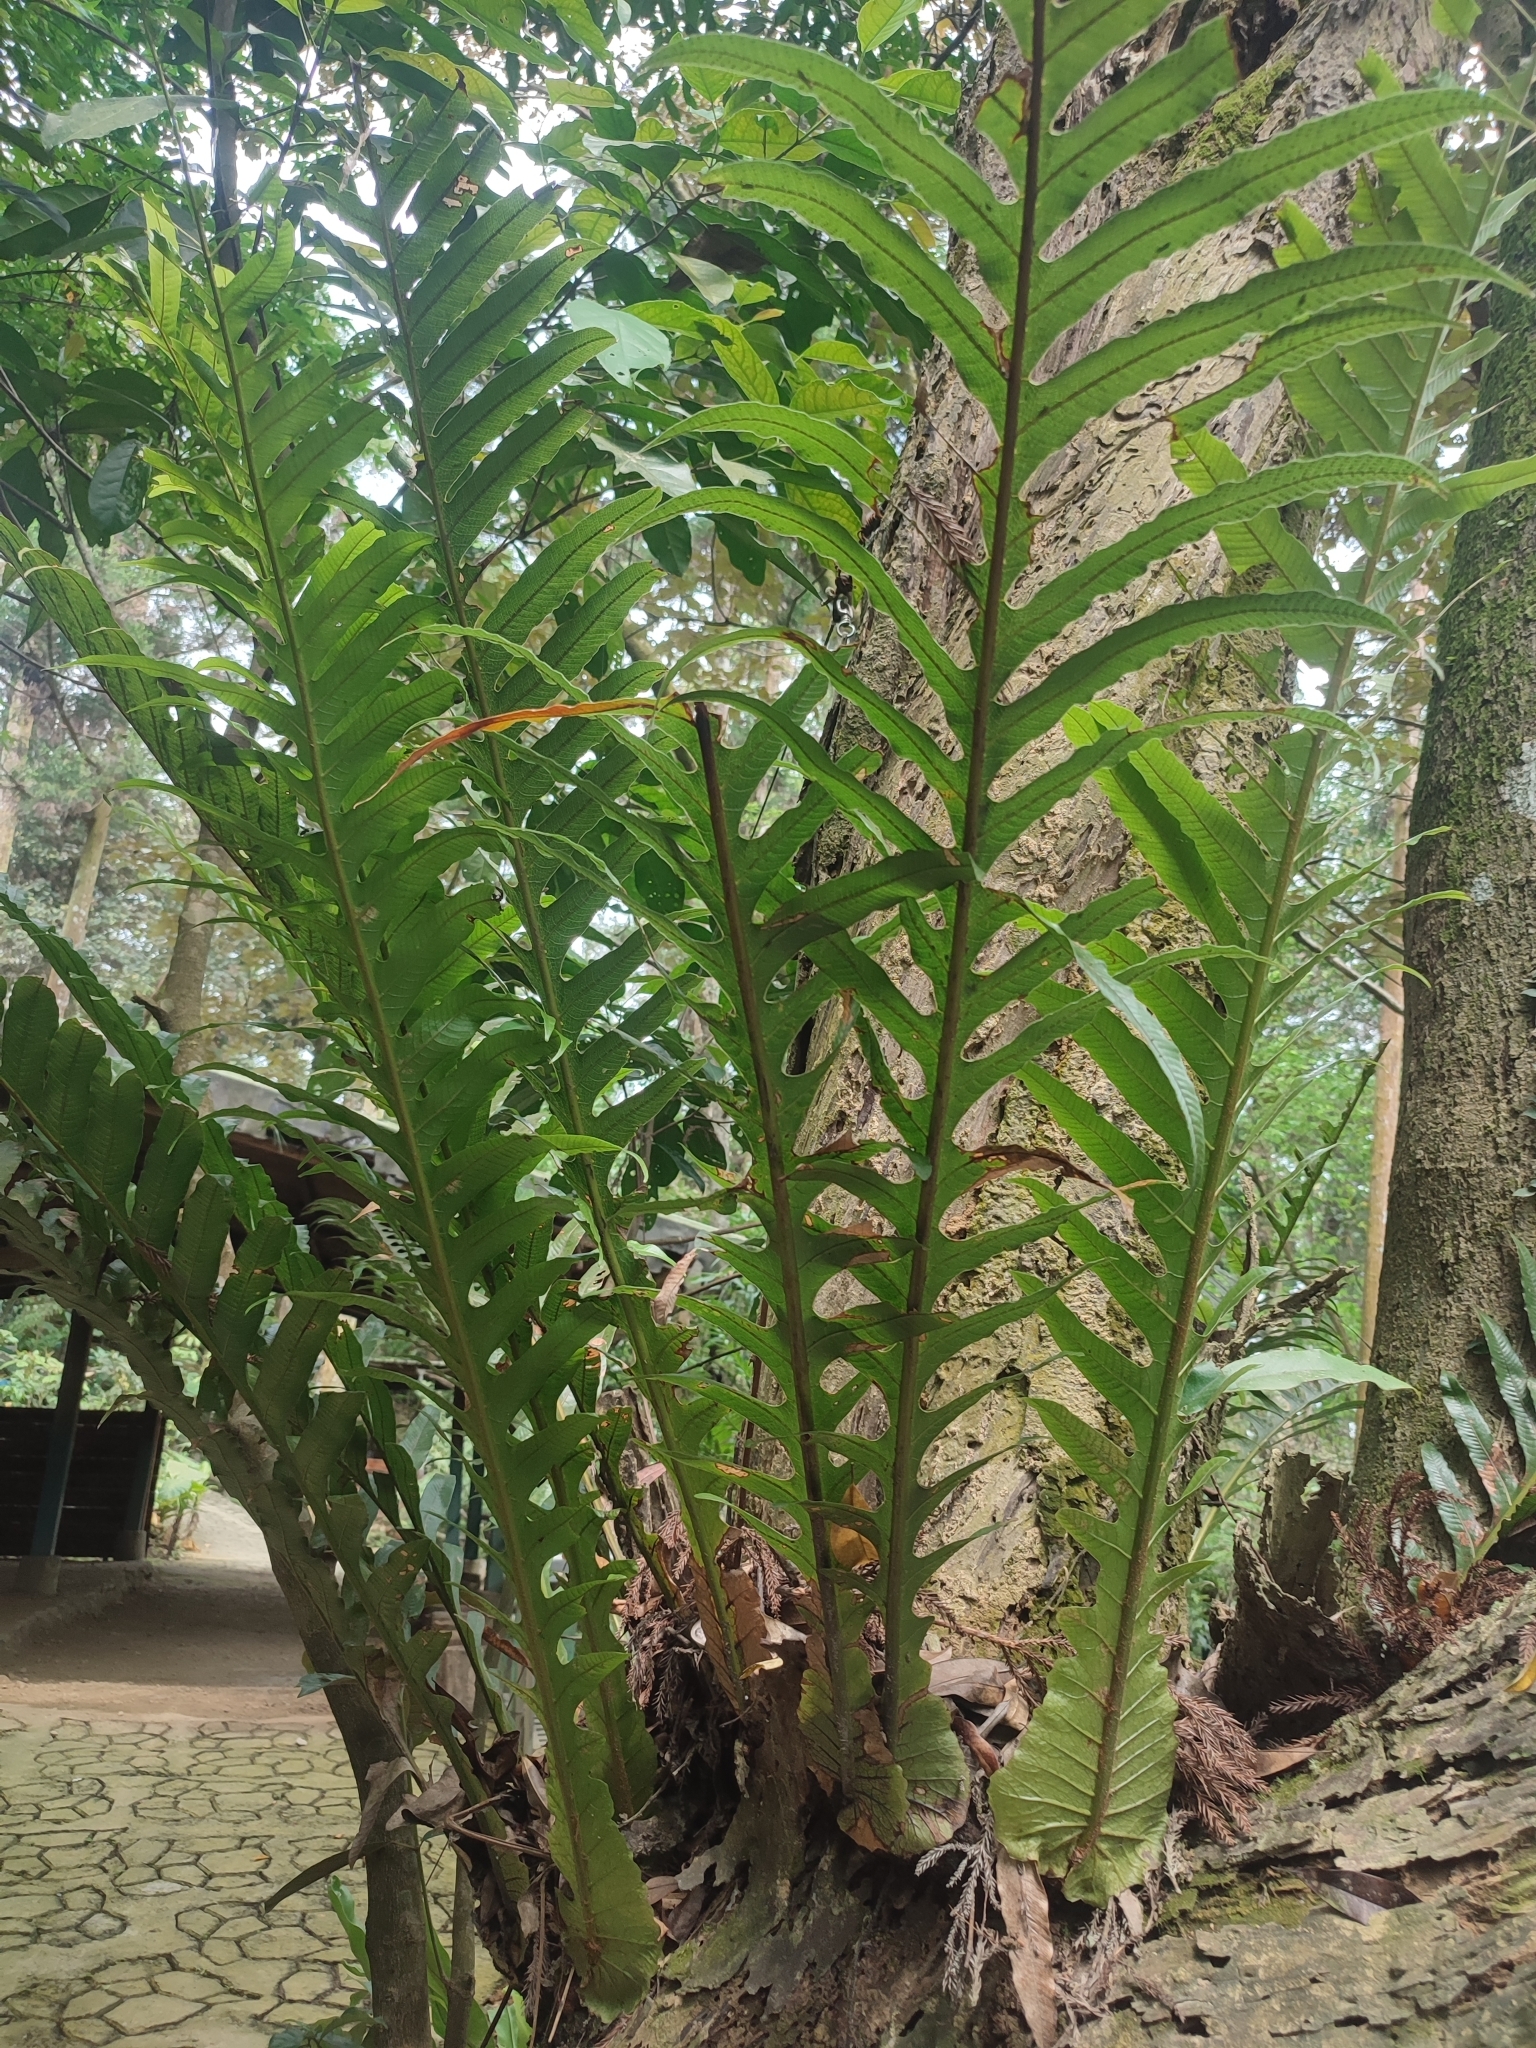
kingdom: Plantae
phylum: Tracheophyta
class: Polypodiopsida
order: Polypodiales
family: Polypodiaceae
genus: Drynaria
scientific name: Drynaria coronans
